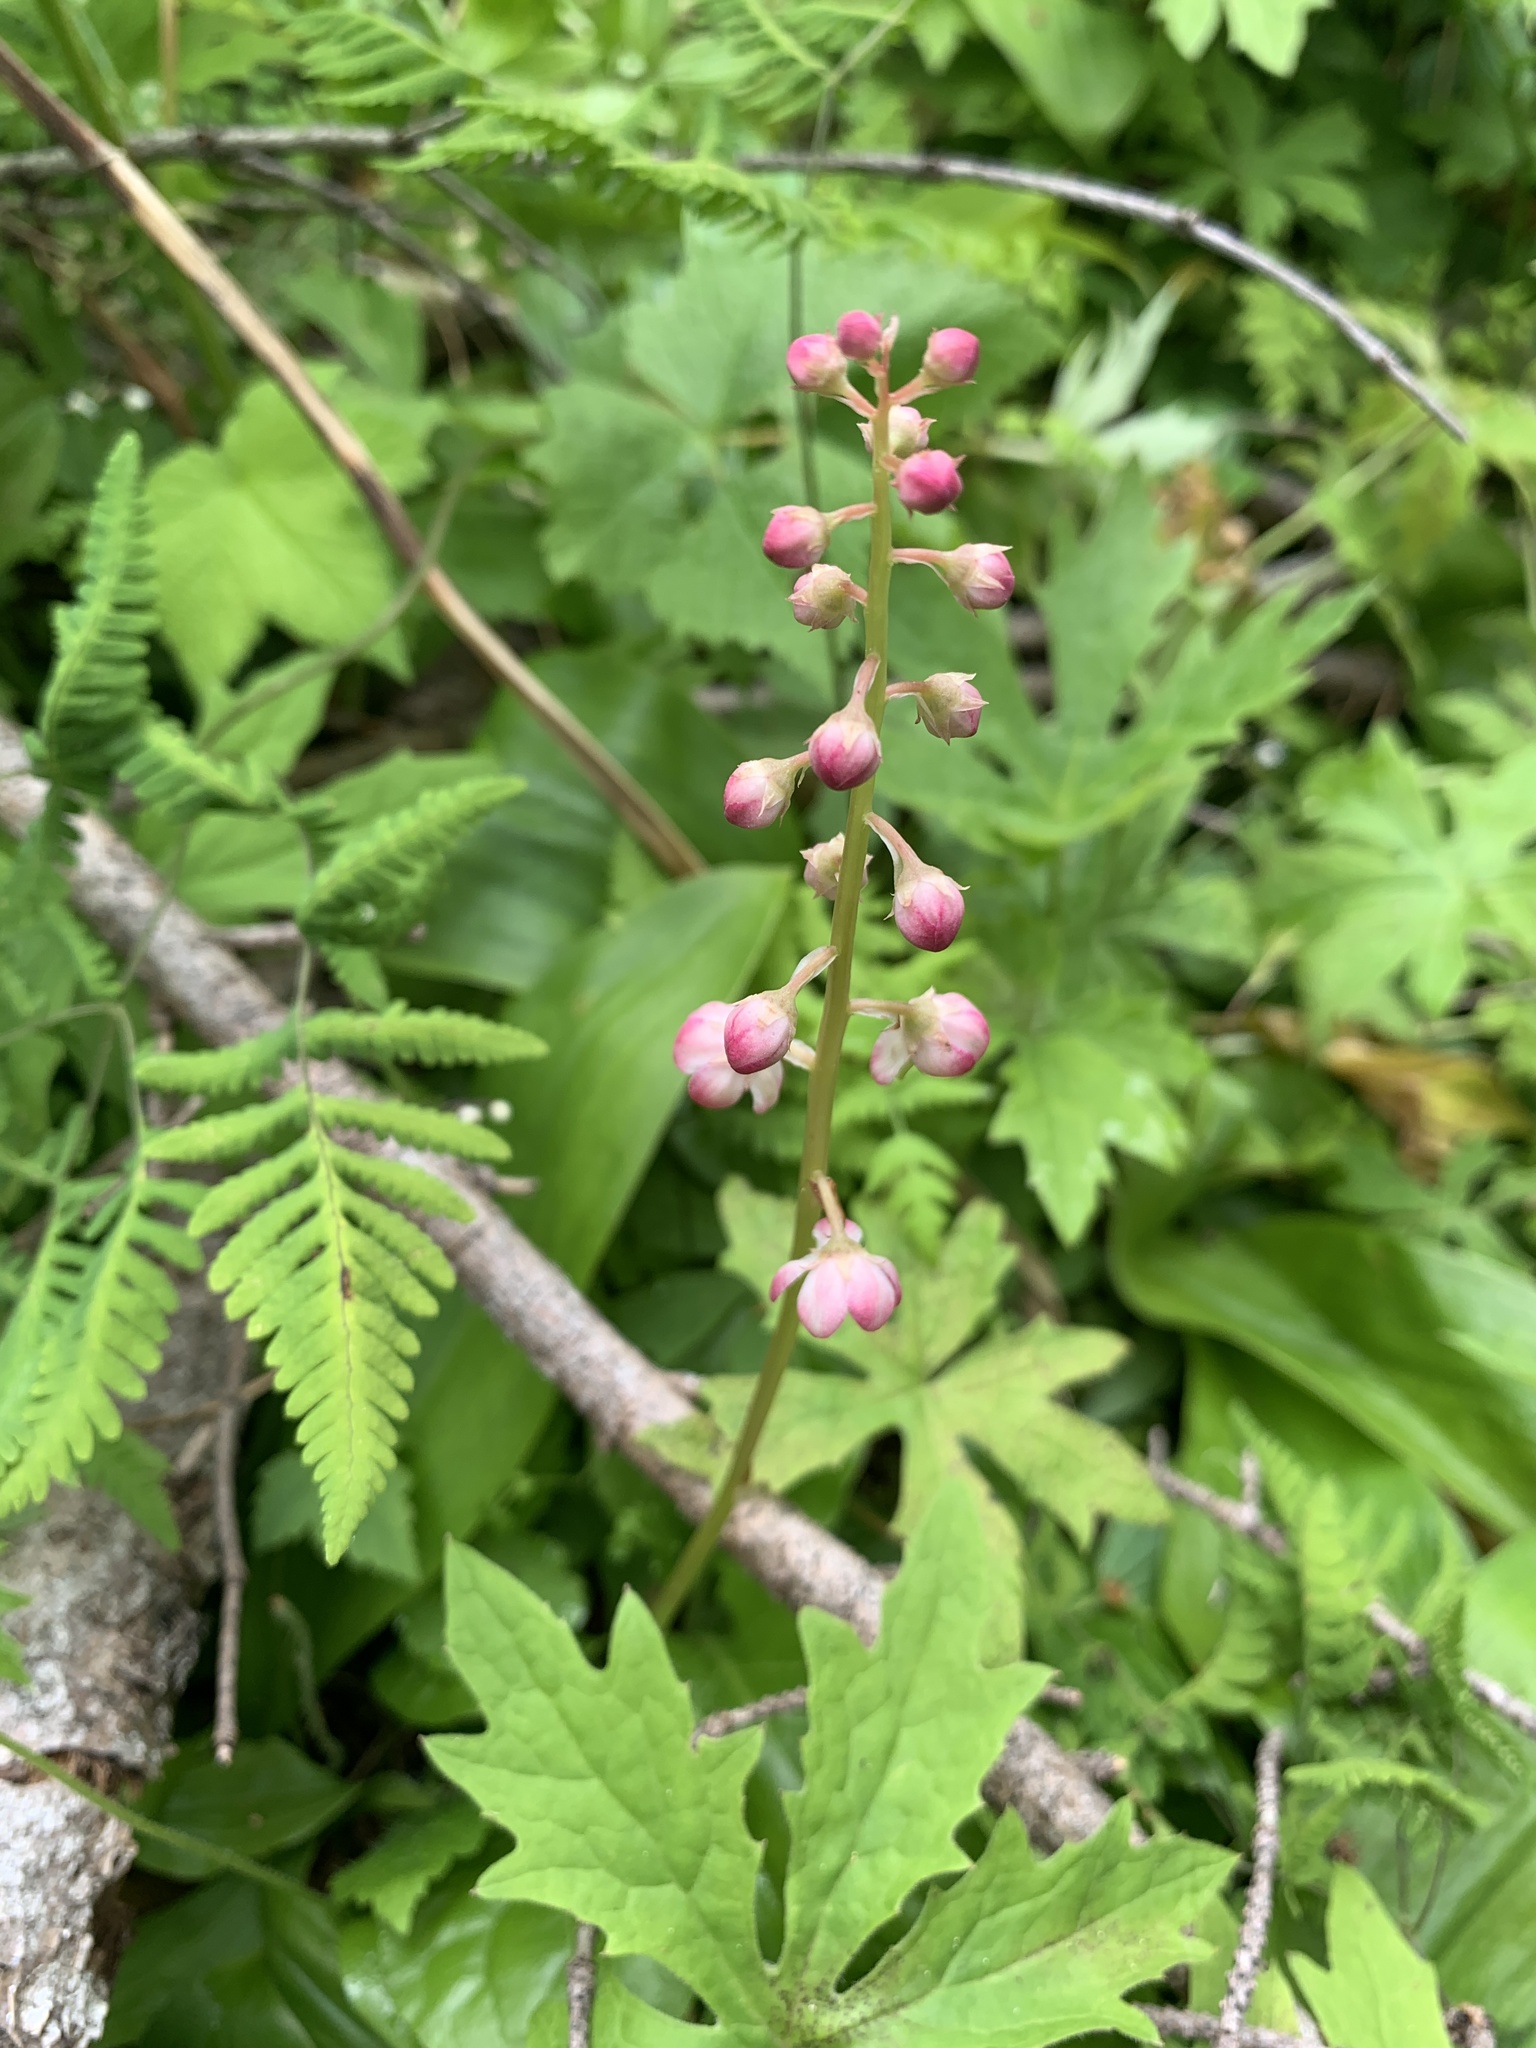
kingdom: Plantae
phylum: Tracheophyta
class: Magnoliopsida
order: Ericales
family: Ericaceae
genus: Pyrola
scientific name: Pyrola asarifolia
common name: Bog wintergreen
